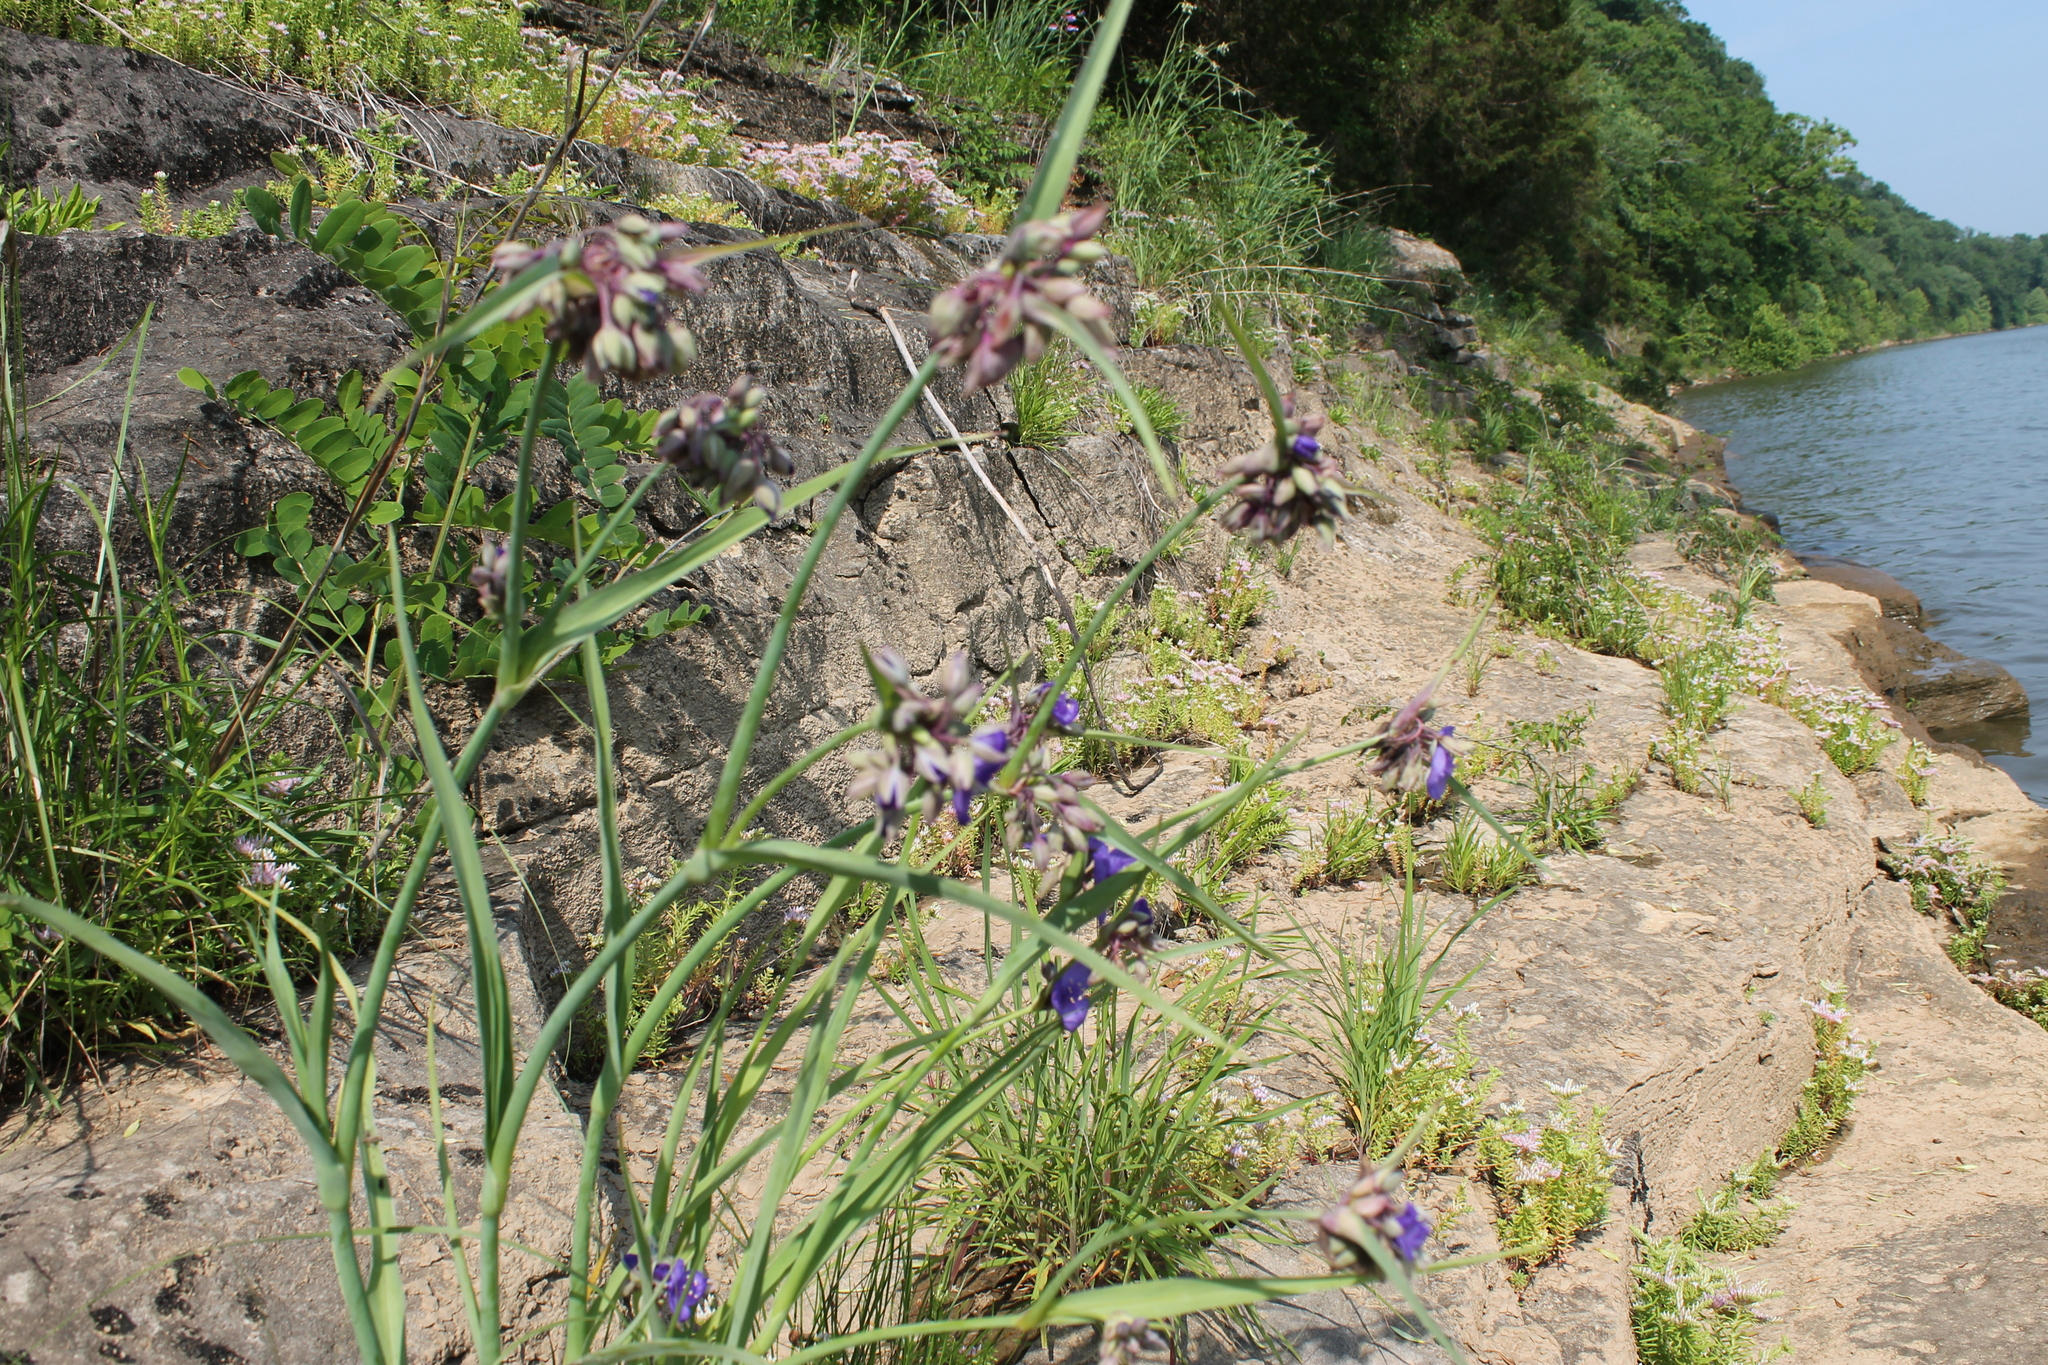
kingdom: Plantae
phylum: Tracheophyta
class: Liliopsida
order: Commelinales
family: Commelinaceae
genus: Tradescantia
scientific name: Tradescantia ohiensis
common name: Ohio spiderwort
